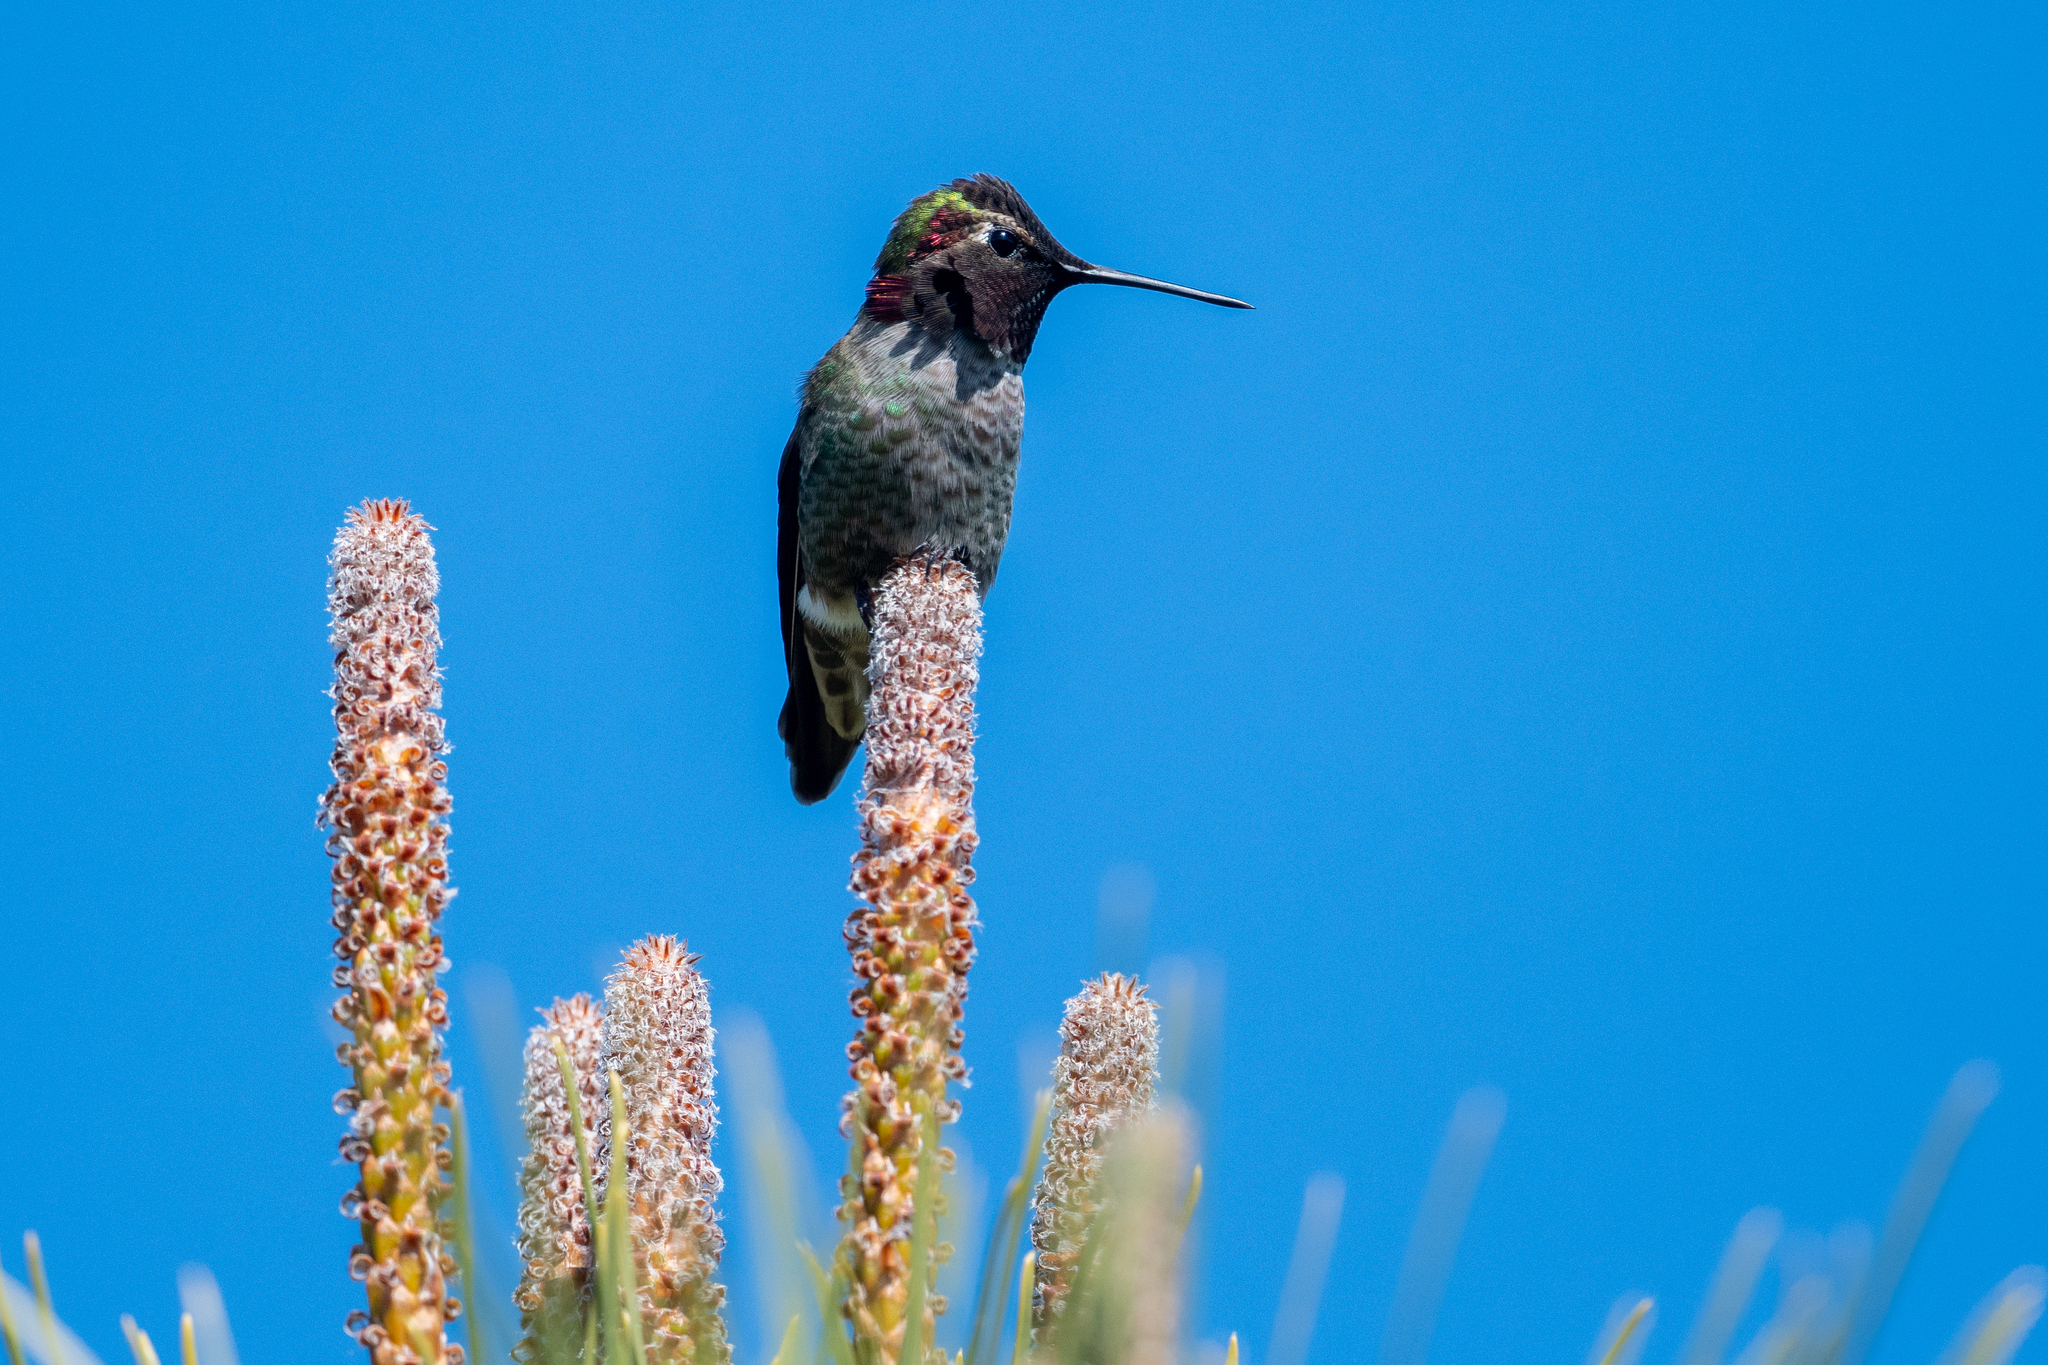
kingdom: Animalia
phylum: Chordata
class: Aves
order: Apodiformes
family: Trochilidae
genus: Calypte
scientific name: Calypte anna
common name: Anna's hummingbird
